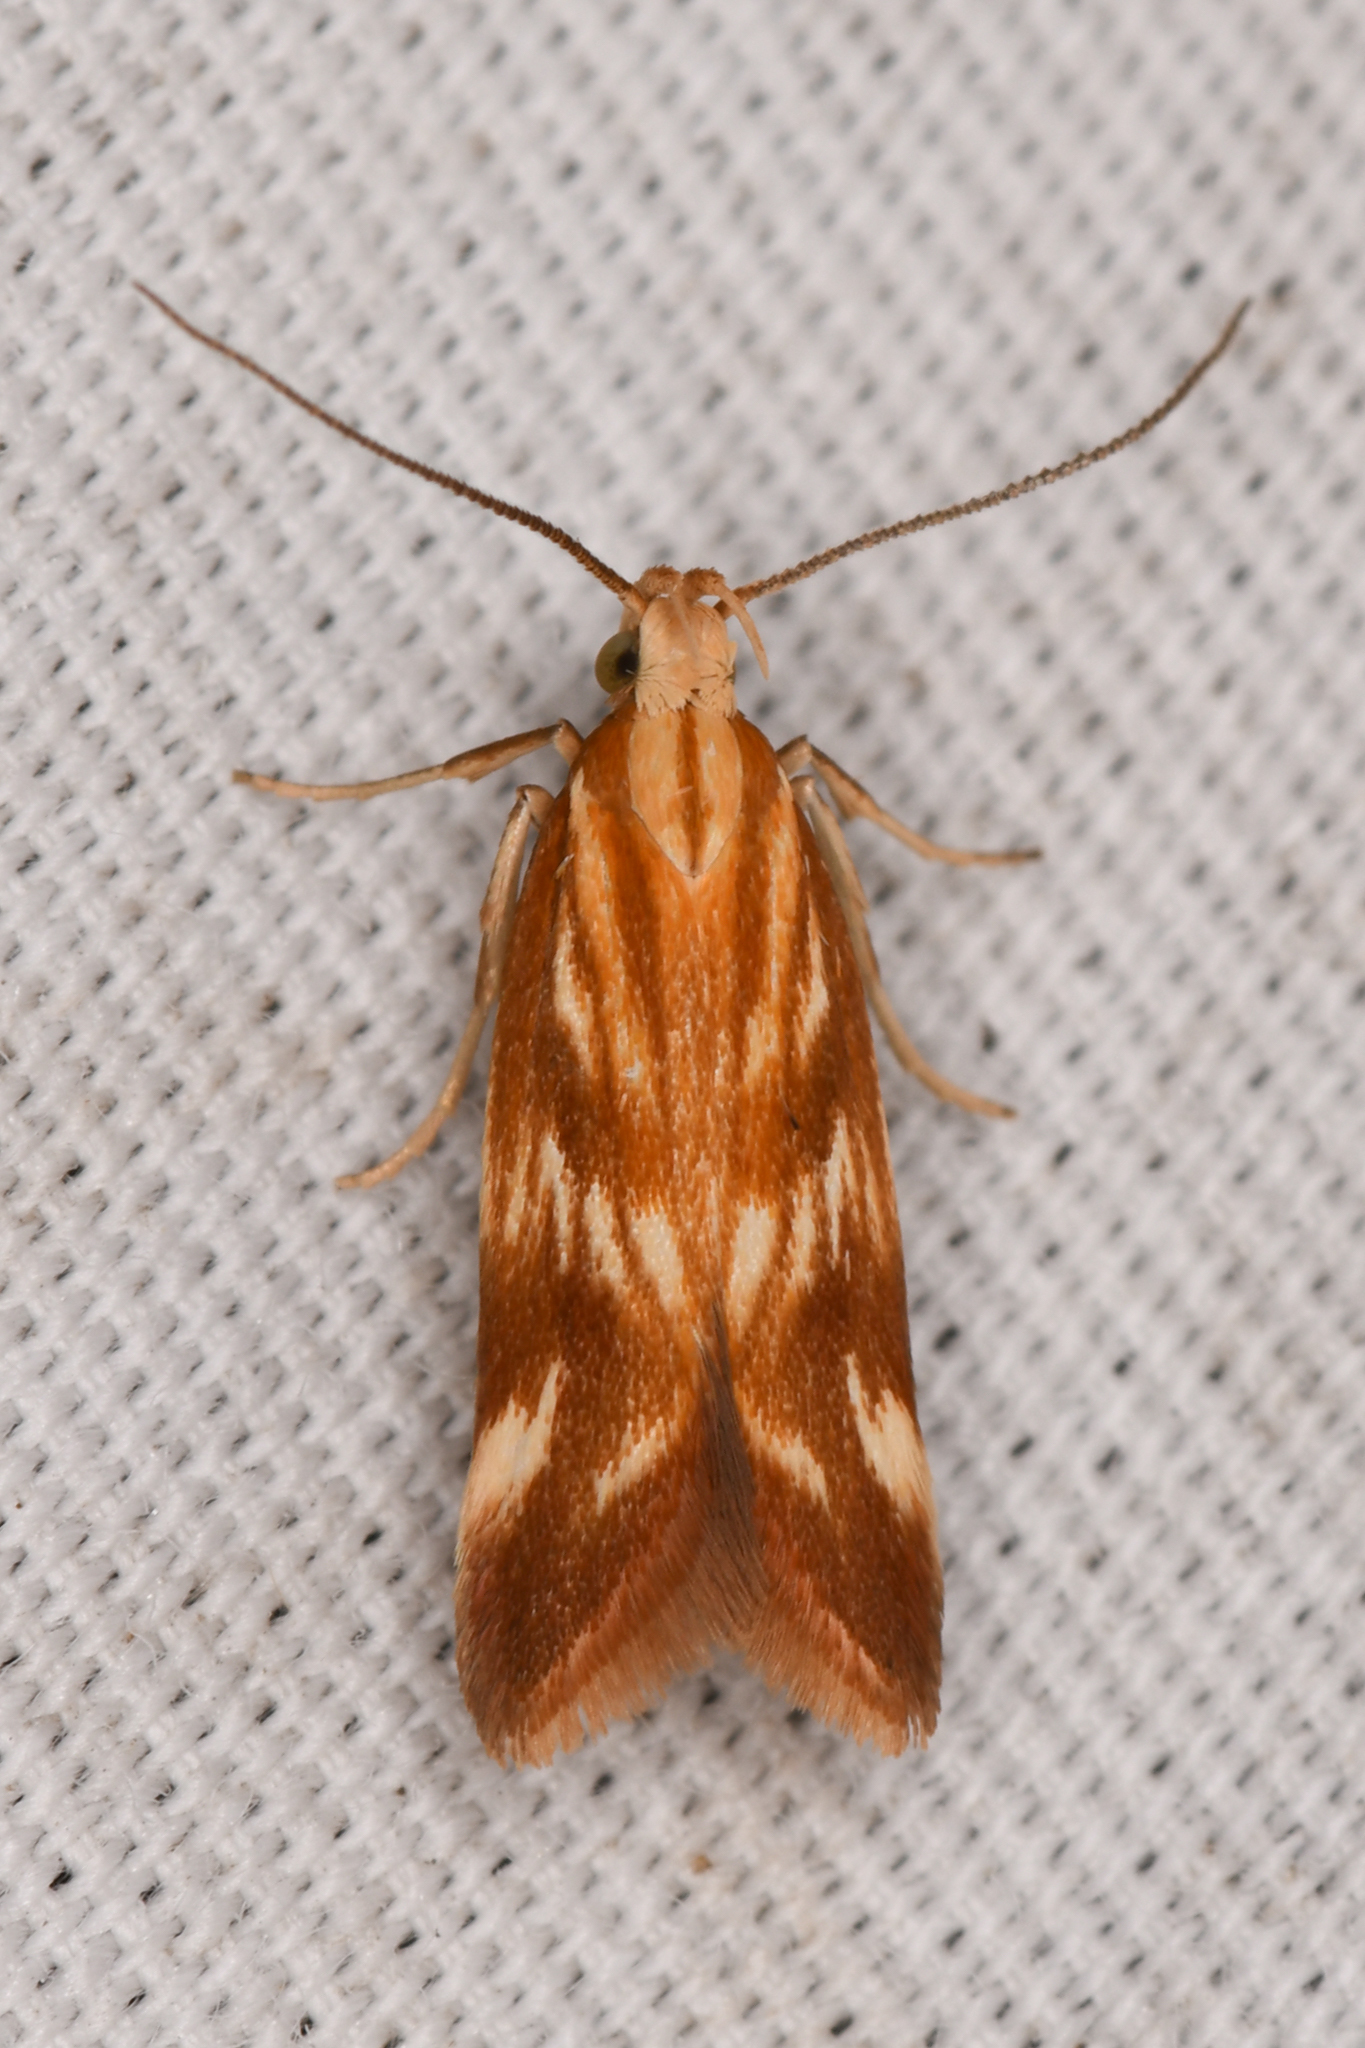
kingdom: Animalia
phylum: Arthropoda
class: Insecta
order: Lepidoptera
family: Gelechiidae
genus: Mirificarma
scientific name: Mirificarma eburnella
